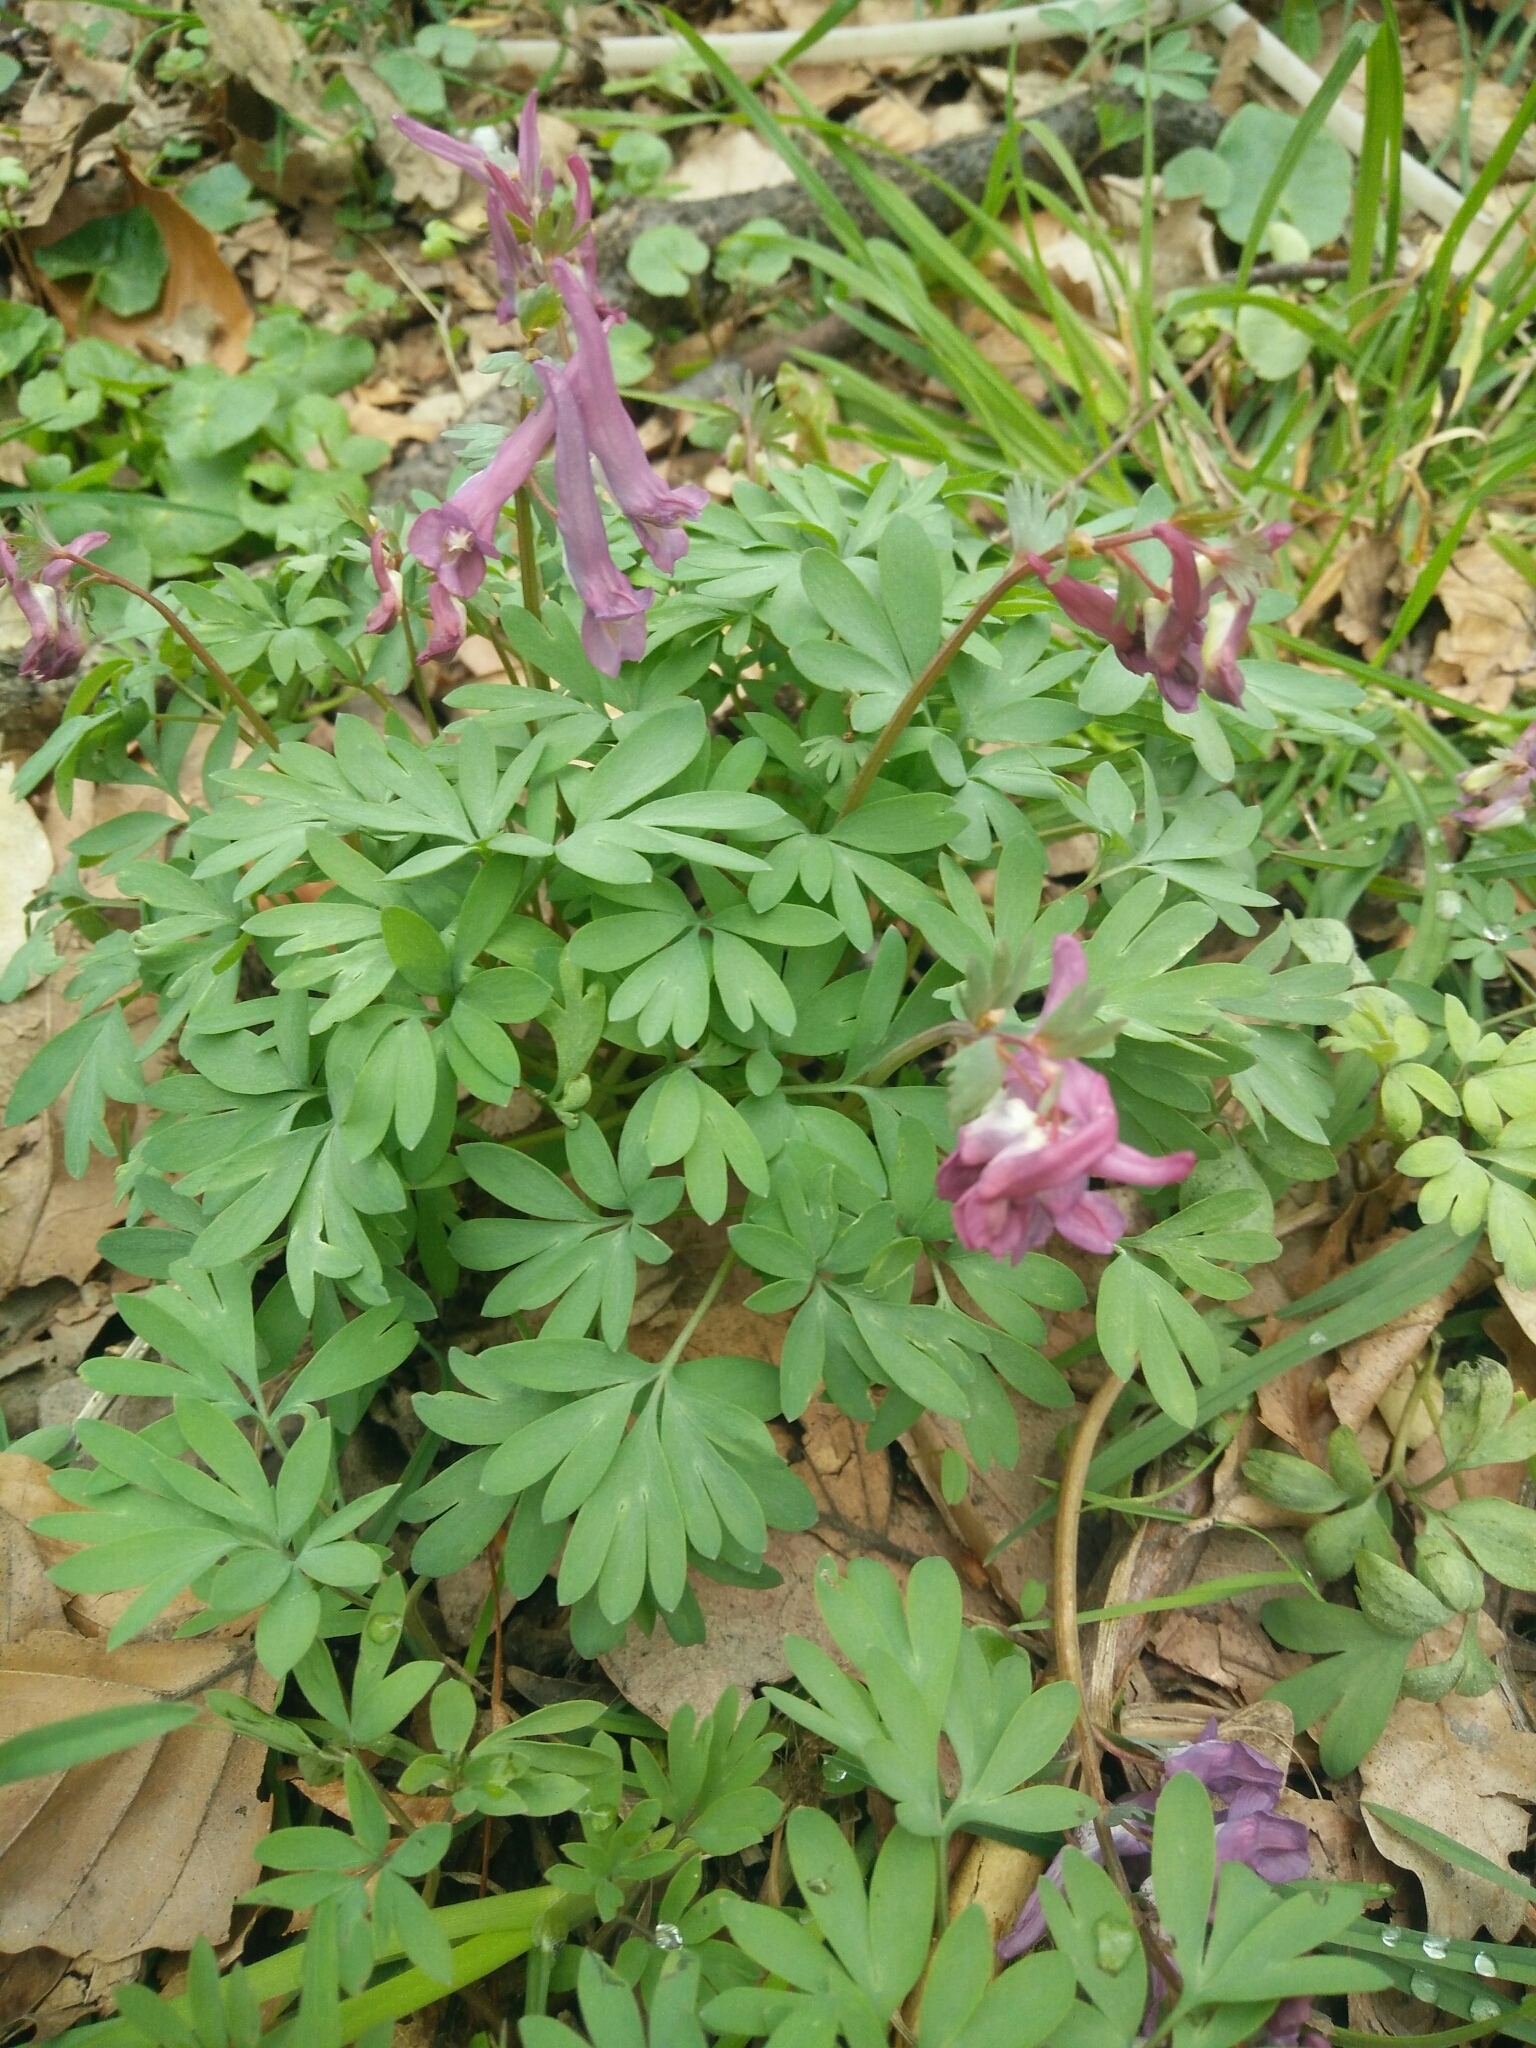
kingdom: Plantae
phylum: Tracheophyta
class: Magnoliopsida
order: Ranunculales
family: Papaveraceae
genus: Corydalis
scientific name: Corydalis solida
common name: Bird-in-a-bush
